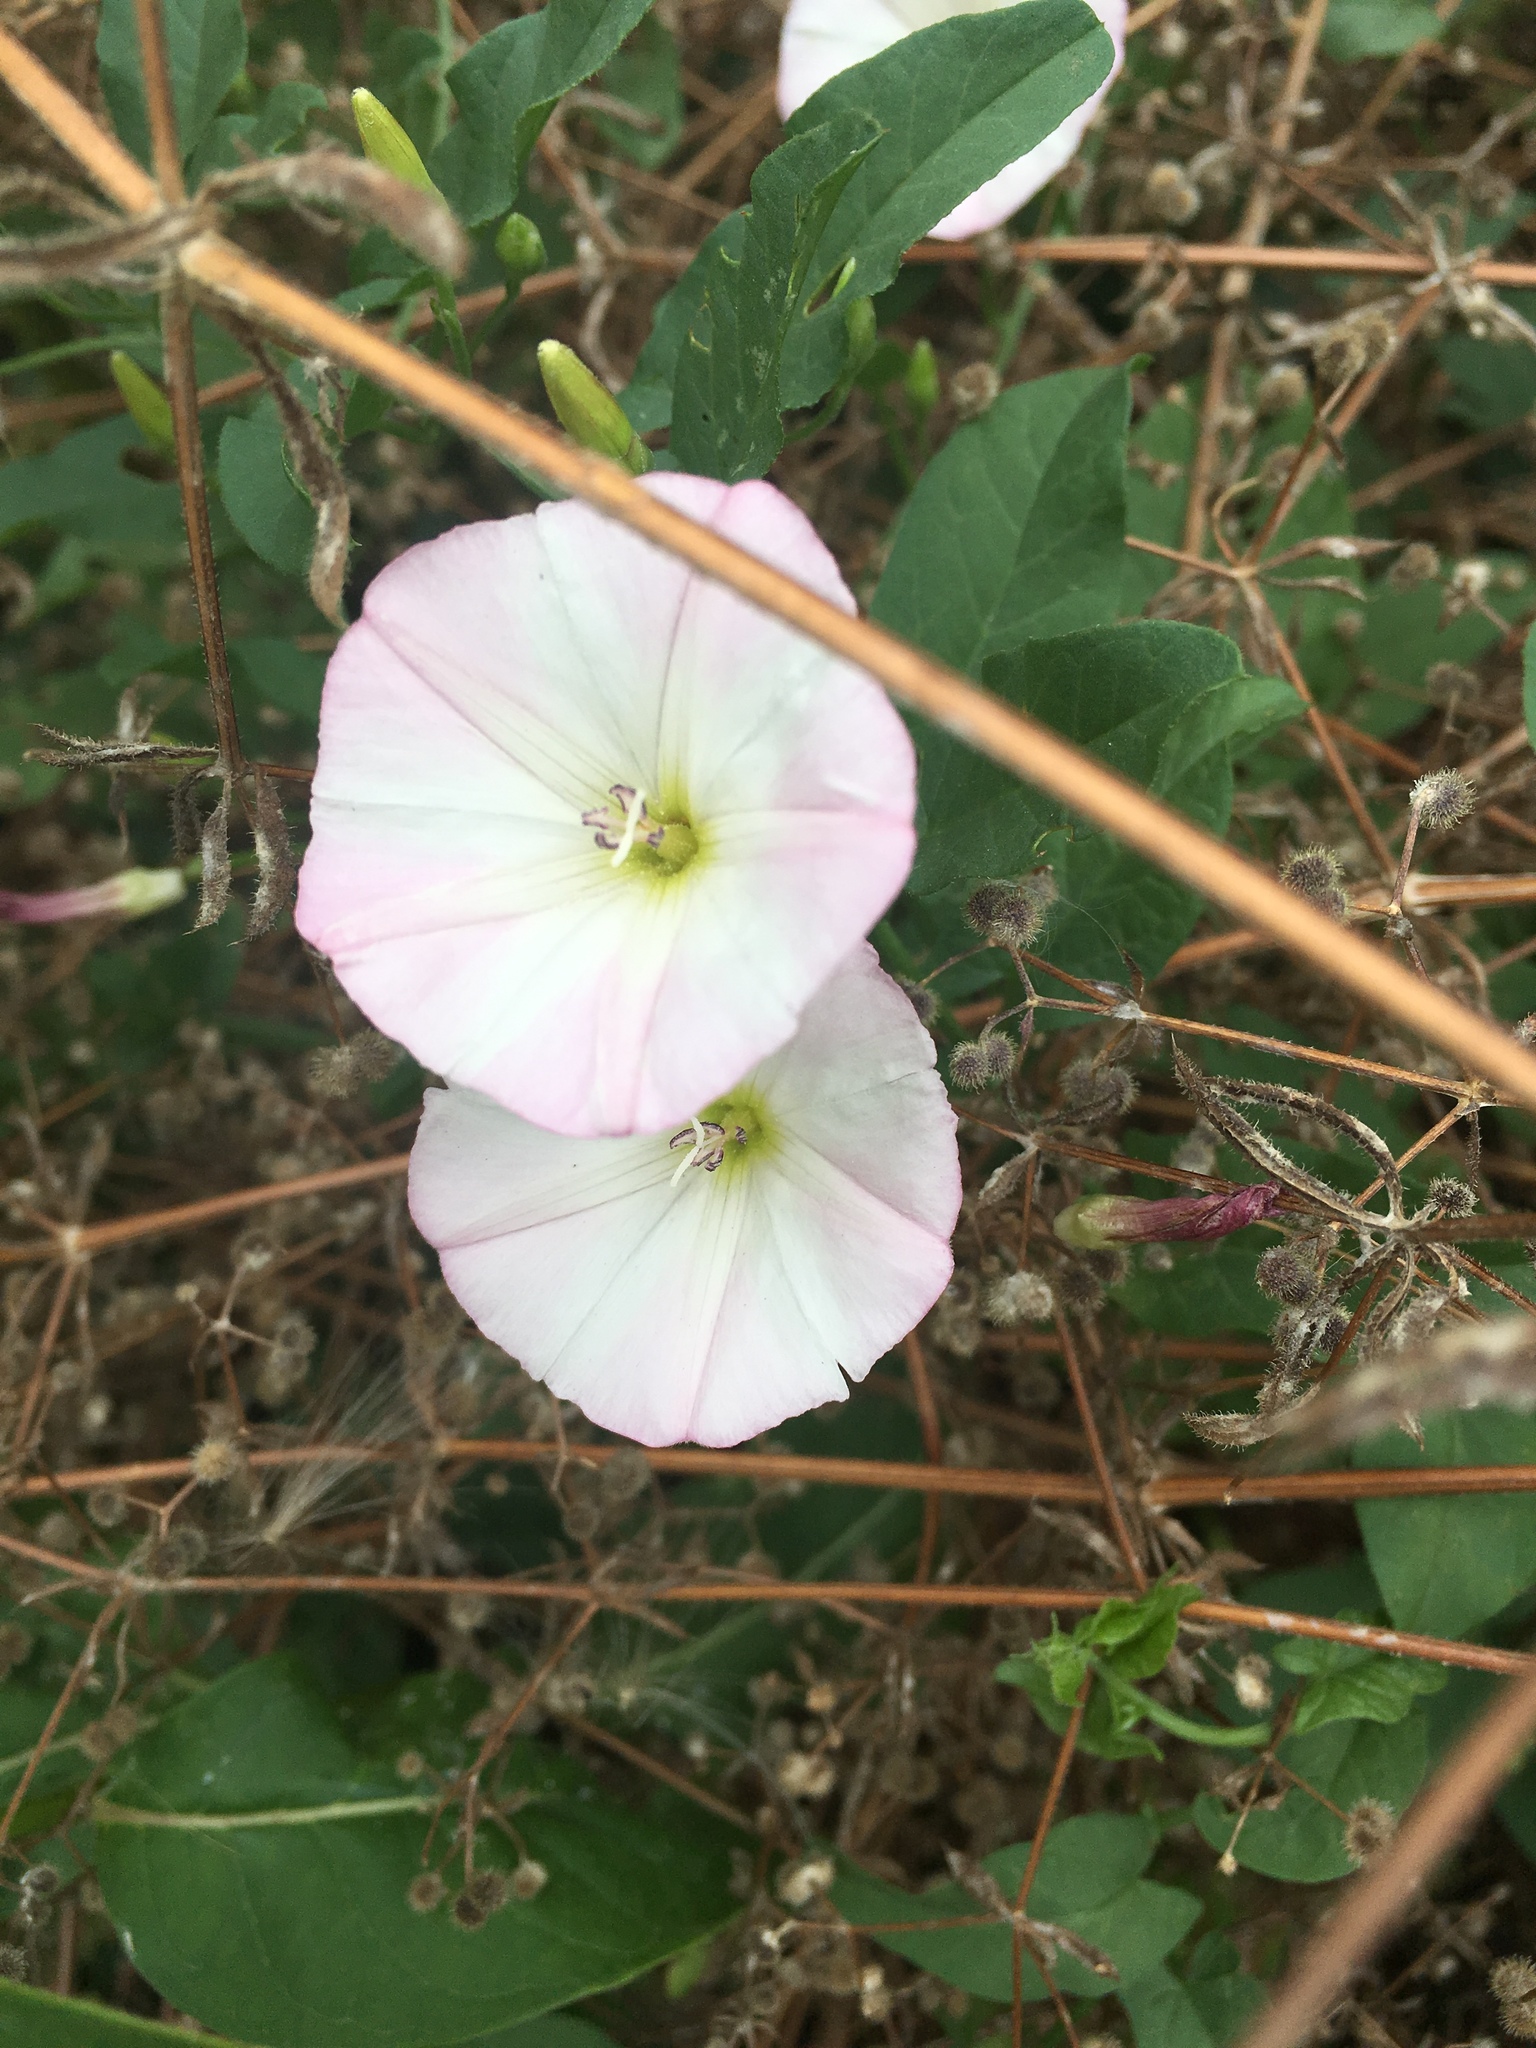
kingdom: Plantae
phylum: Tracheophyta
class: Magnoliopsida
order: Solanales
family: Convolvulaceae
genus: Convolvulus
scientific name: Convolvulus arvensis
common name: Field bindweed
